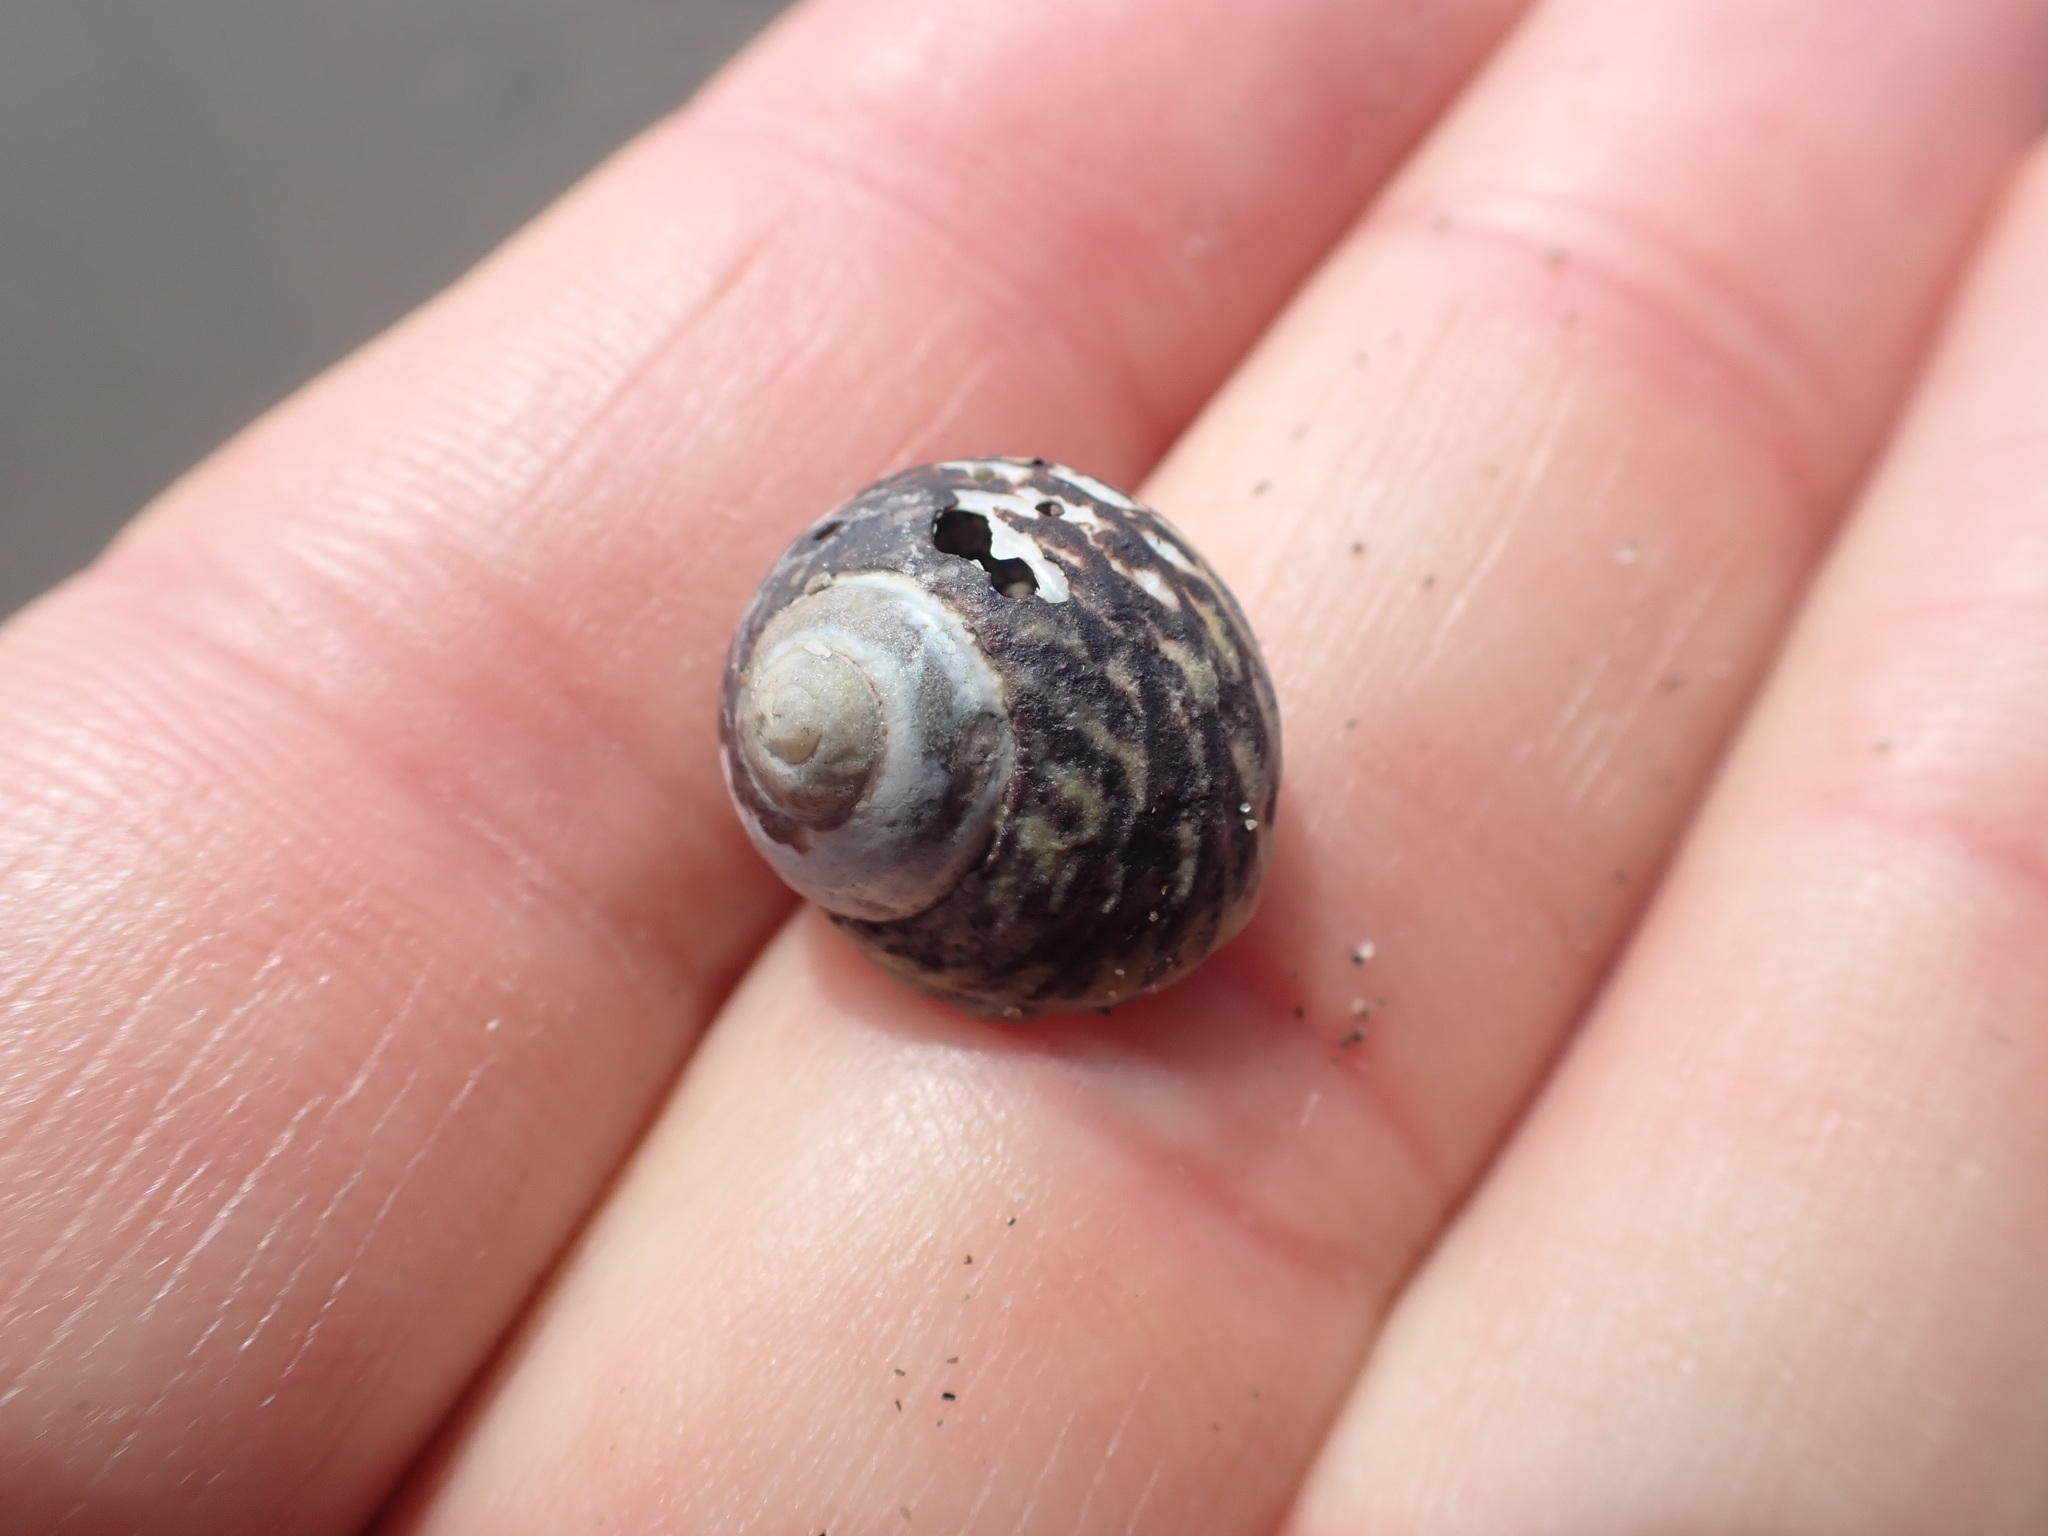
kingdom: Animalia
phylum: Mollusca
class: Gastropoda
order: Trochida
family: Trochidae
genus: Diloma
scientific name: Diloma subrostratum
